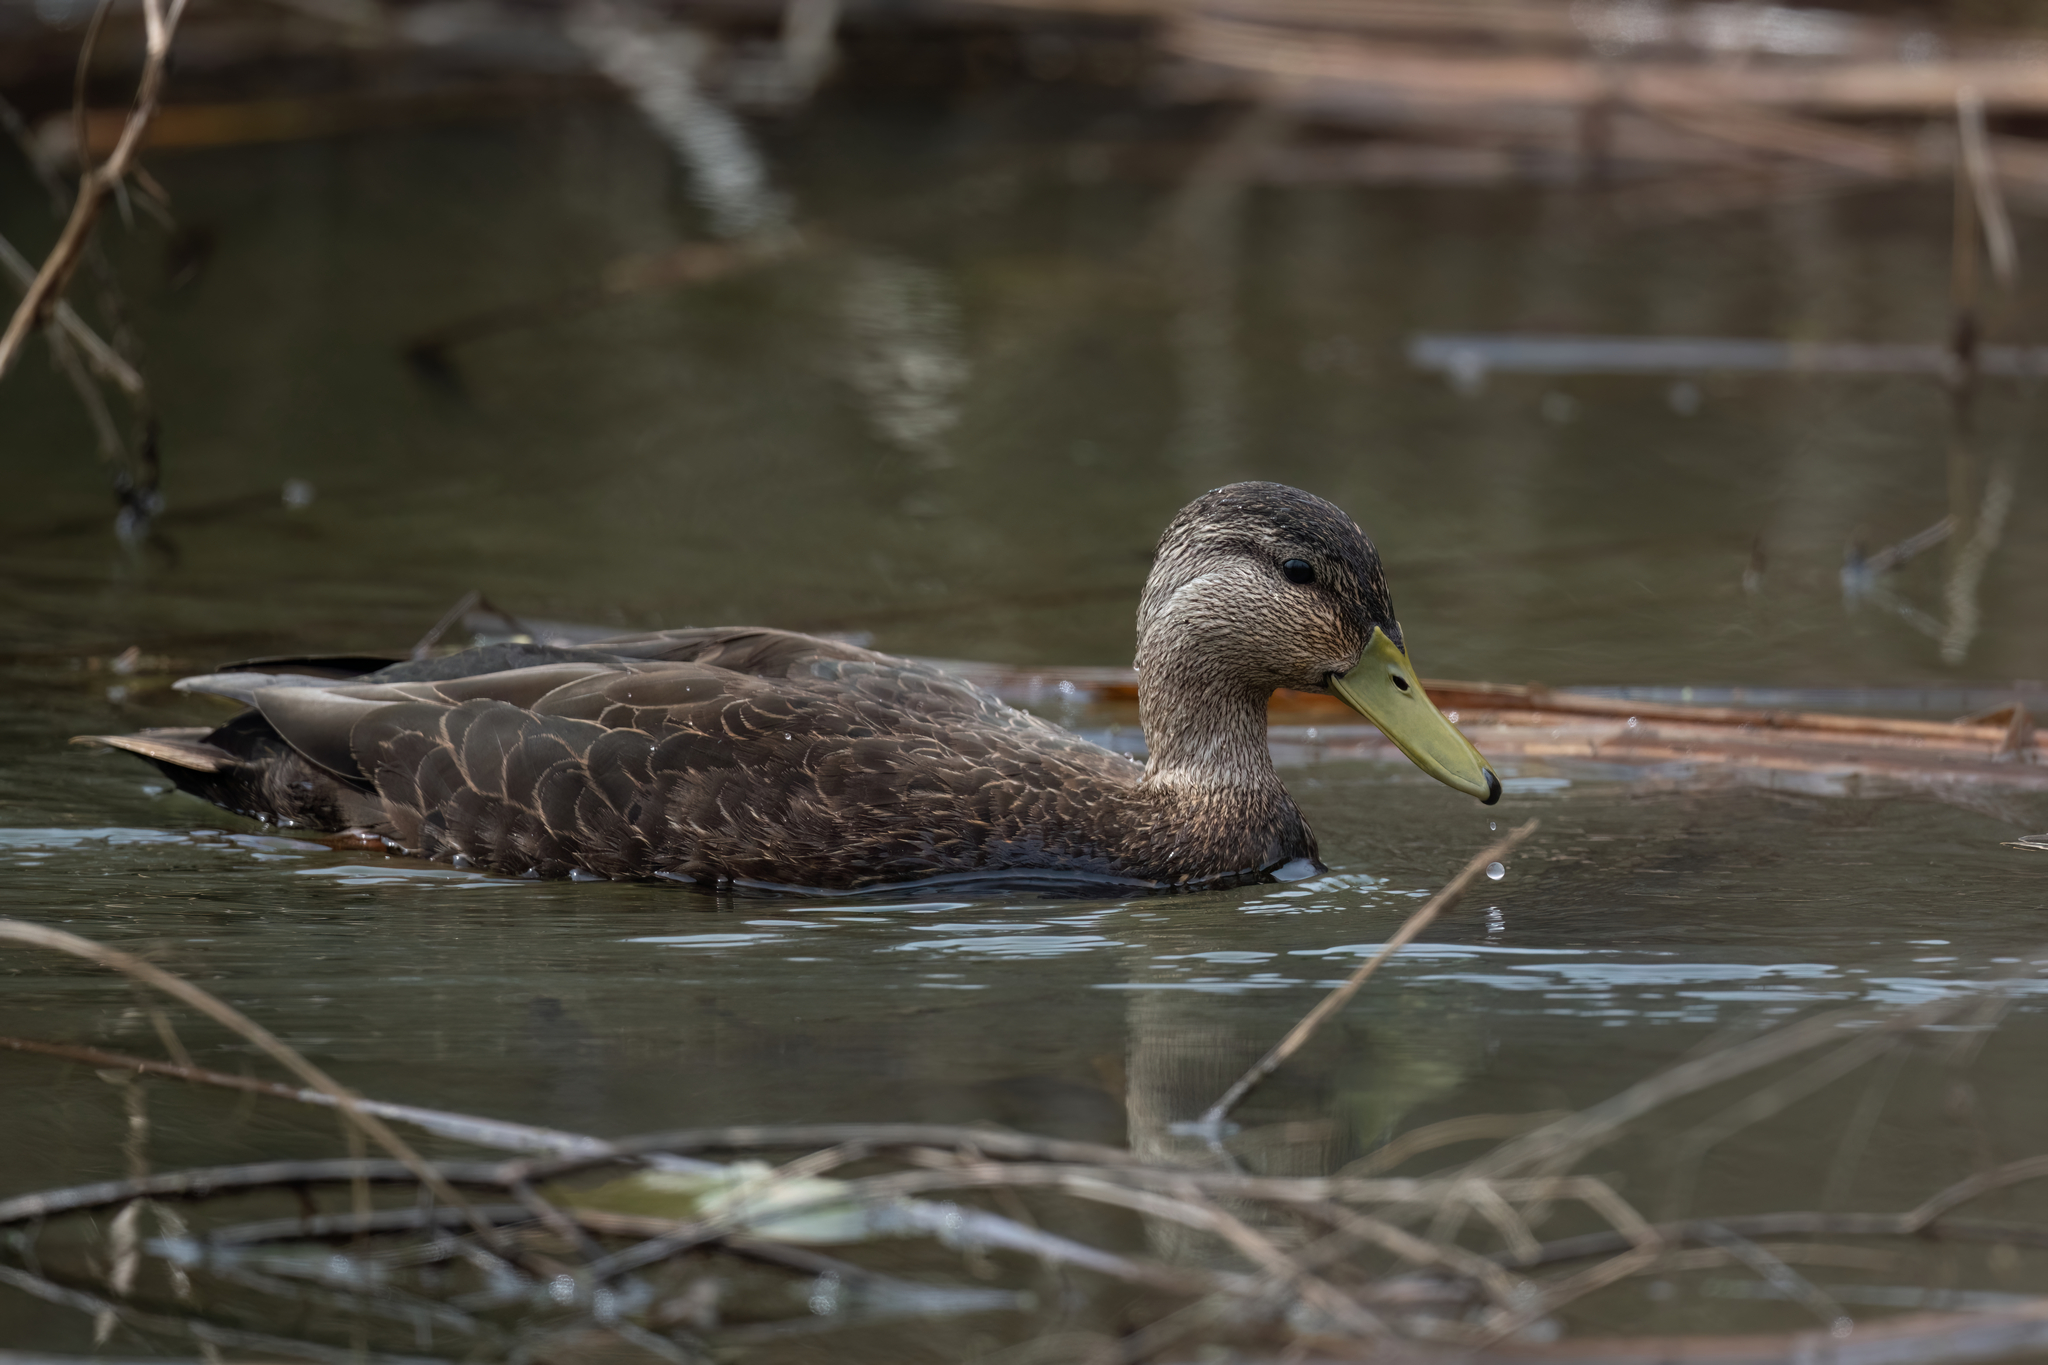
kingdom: Animalia
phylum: Chordata
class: Aves
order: Anseriformes
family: Anatidae
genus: Anas
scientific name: Anas rubripes
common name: American black duck
